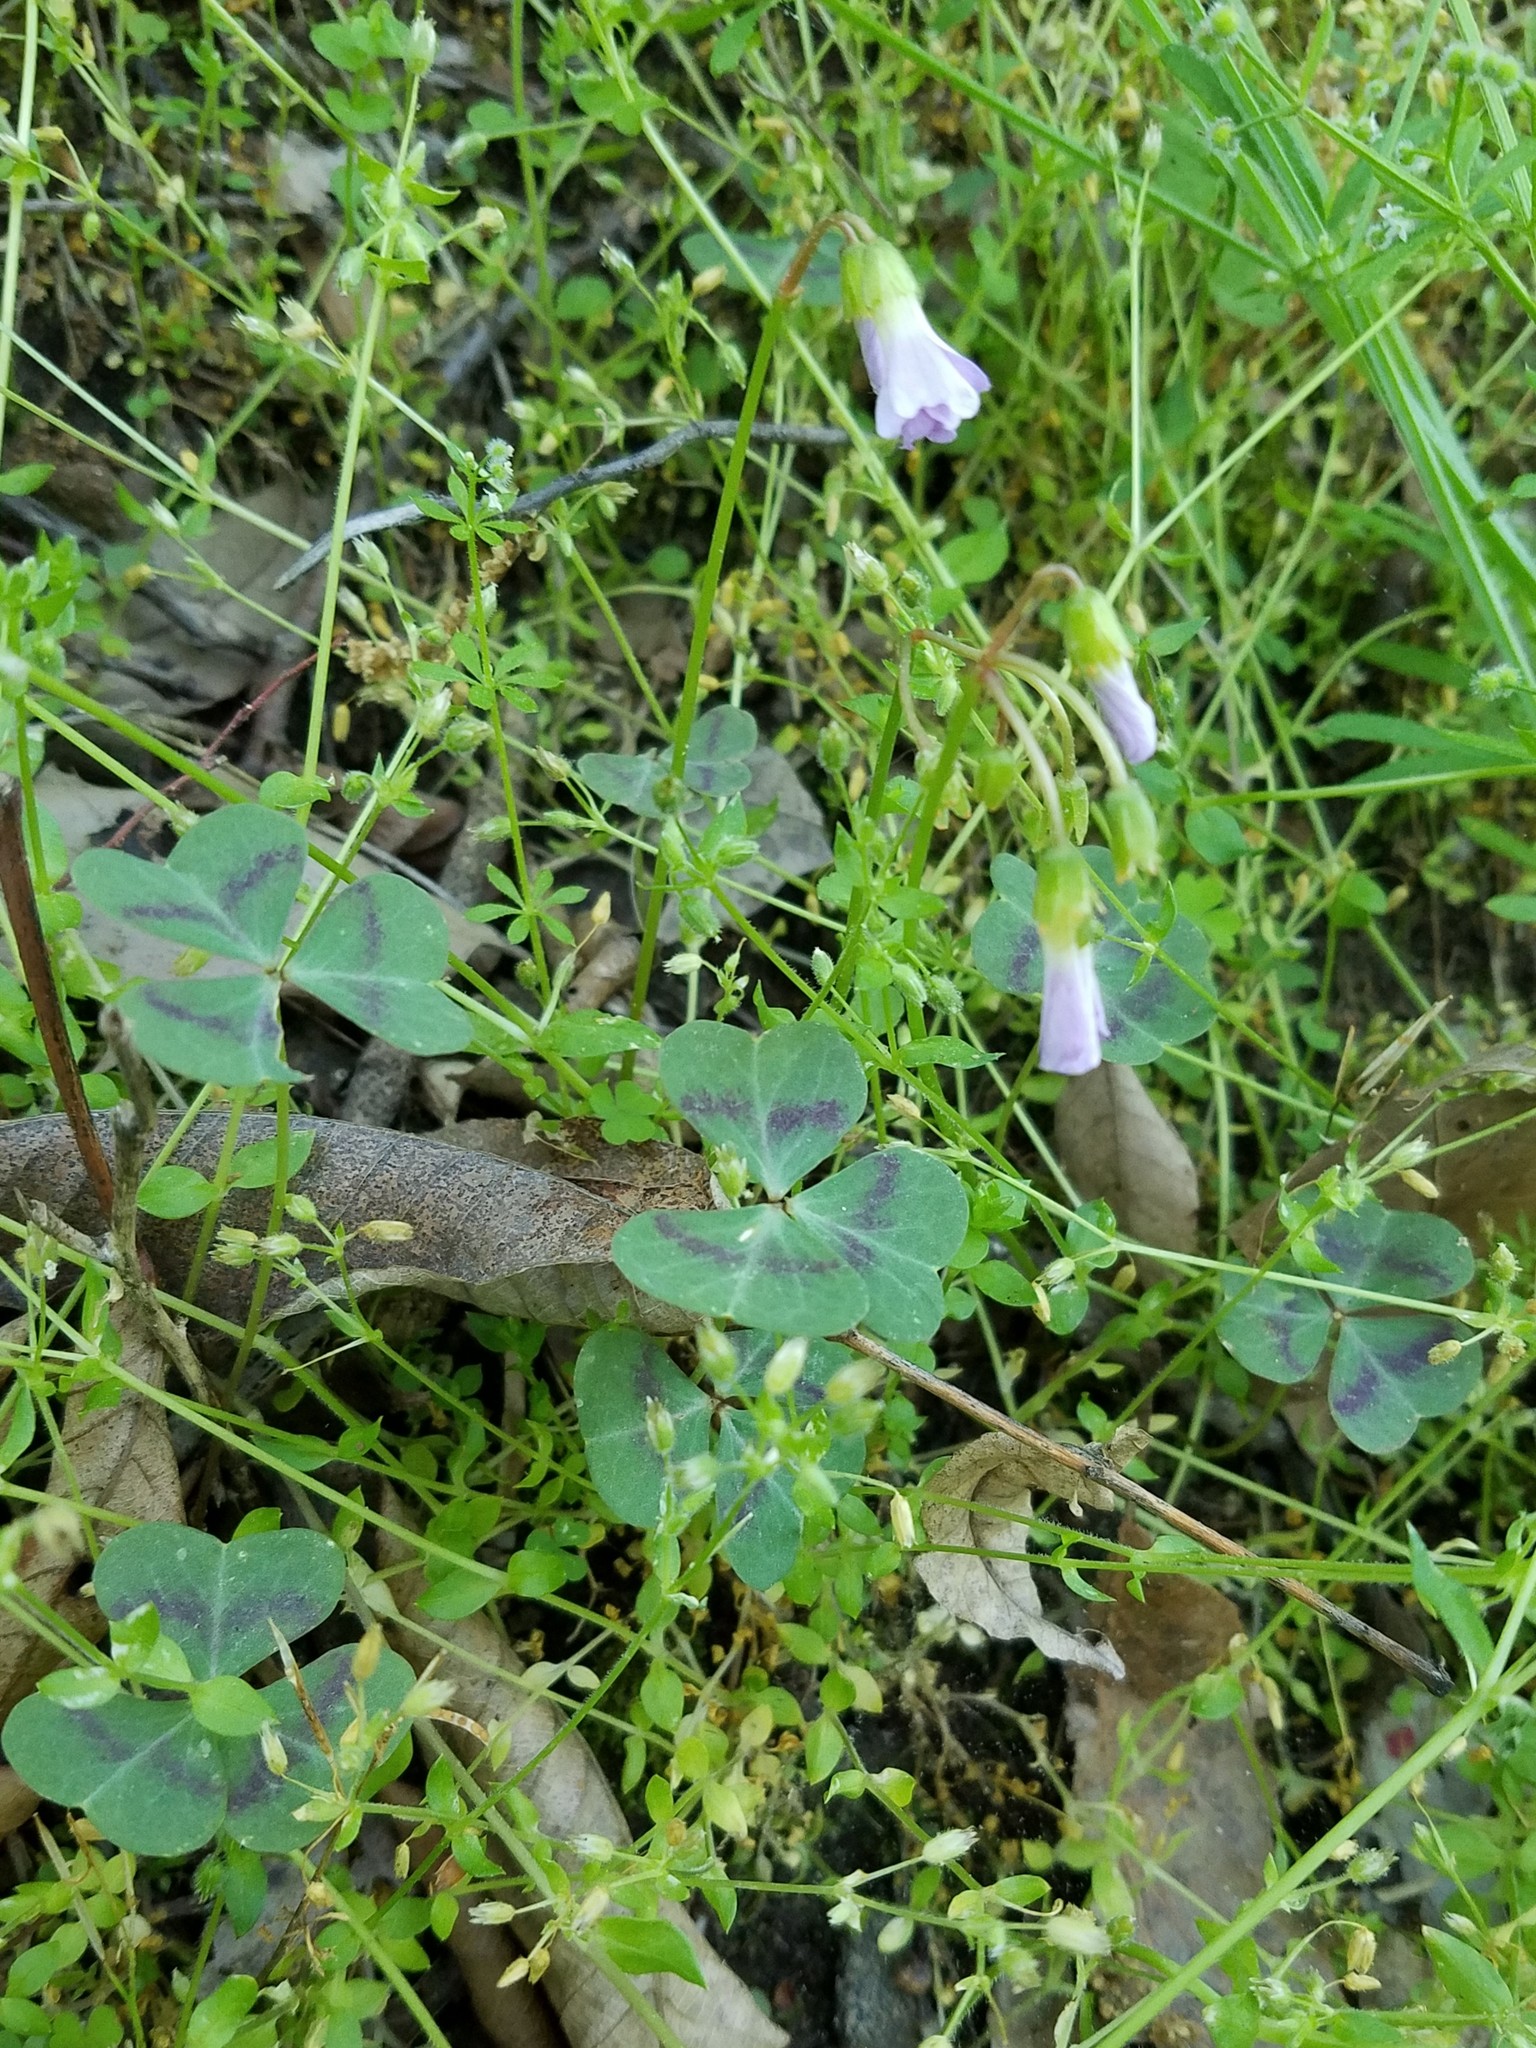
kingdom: Plantae
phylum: Tracheophyta
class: Magnoliopsida
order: Oxalidales
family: Oxalidaceae
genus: Oxalis
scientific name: Oxalis violacea
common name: Violet wood-sorrel
